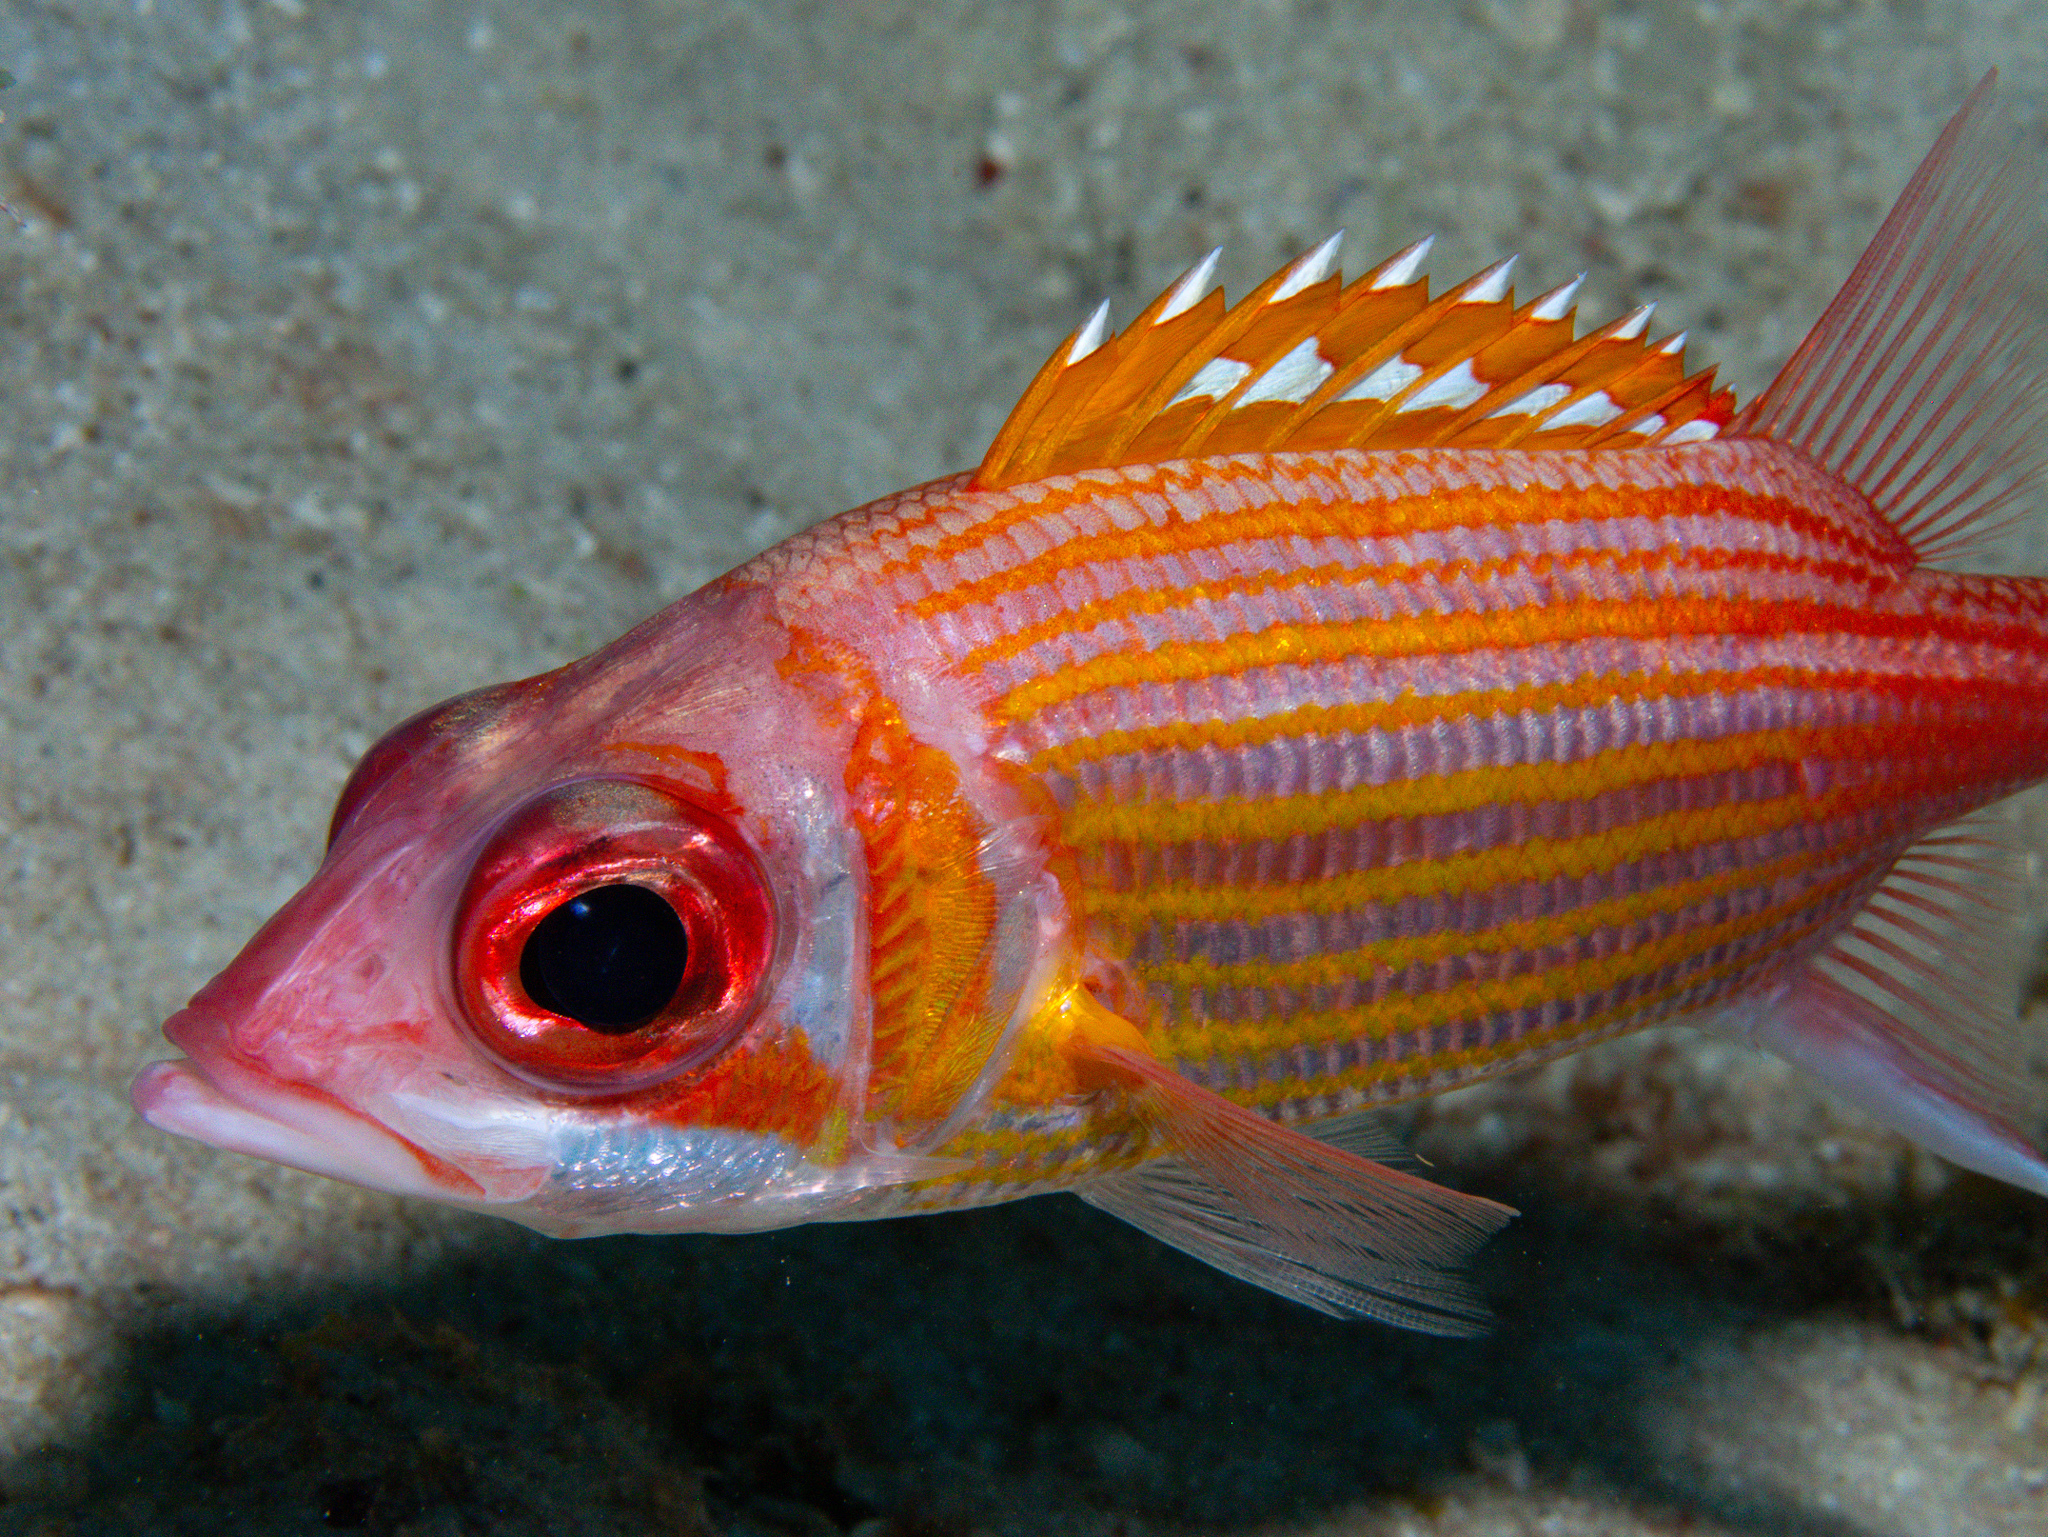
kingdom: Animalia
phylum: Chordata
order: Beryciformes
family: Holocentridae
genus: Neoniphon
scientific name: Neoniphon marianus
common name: Longjaw squirrelfish
